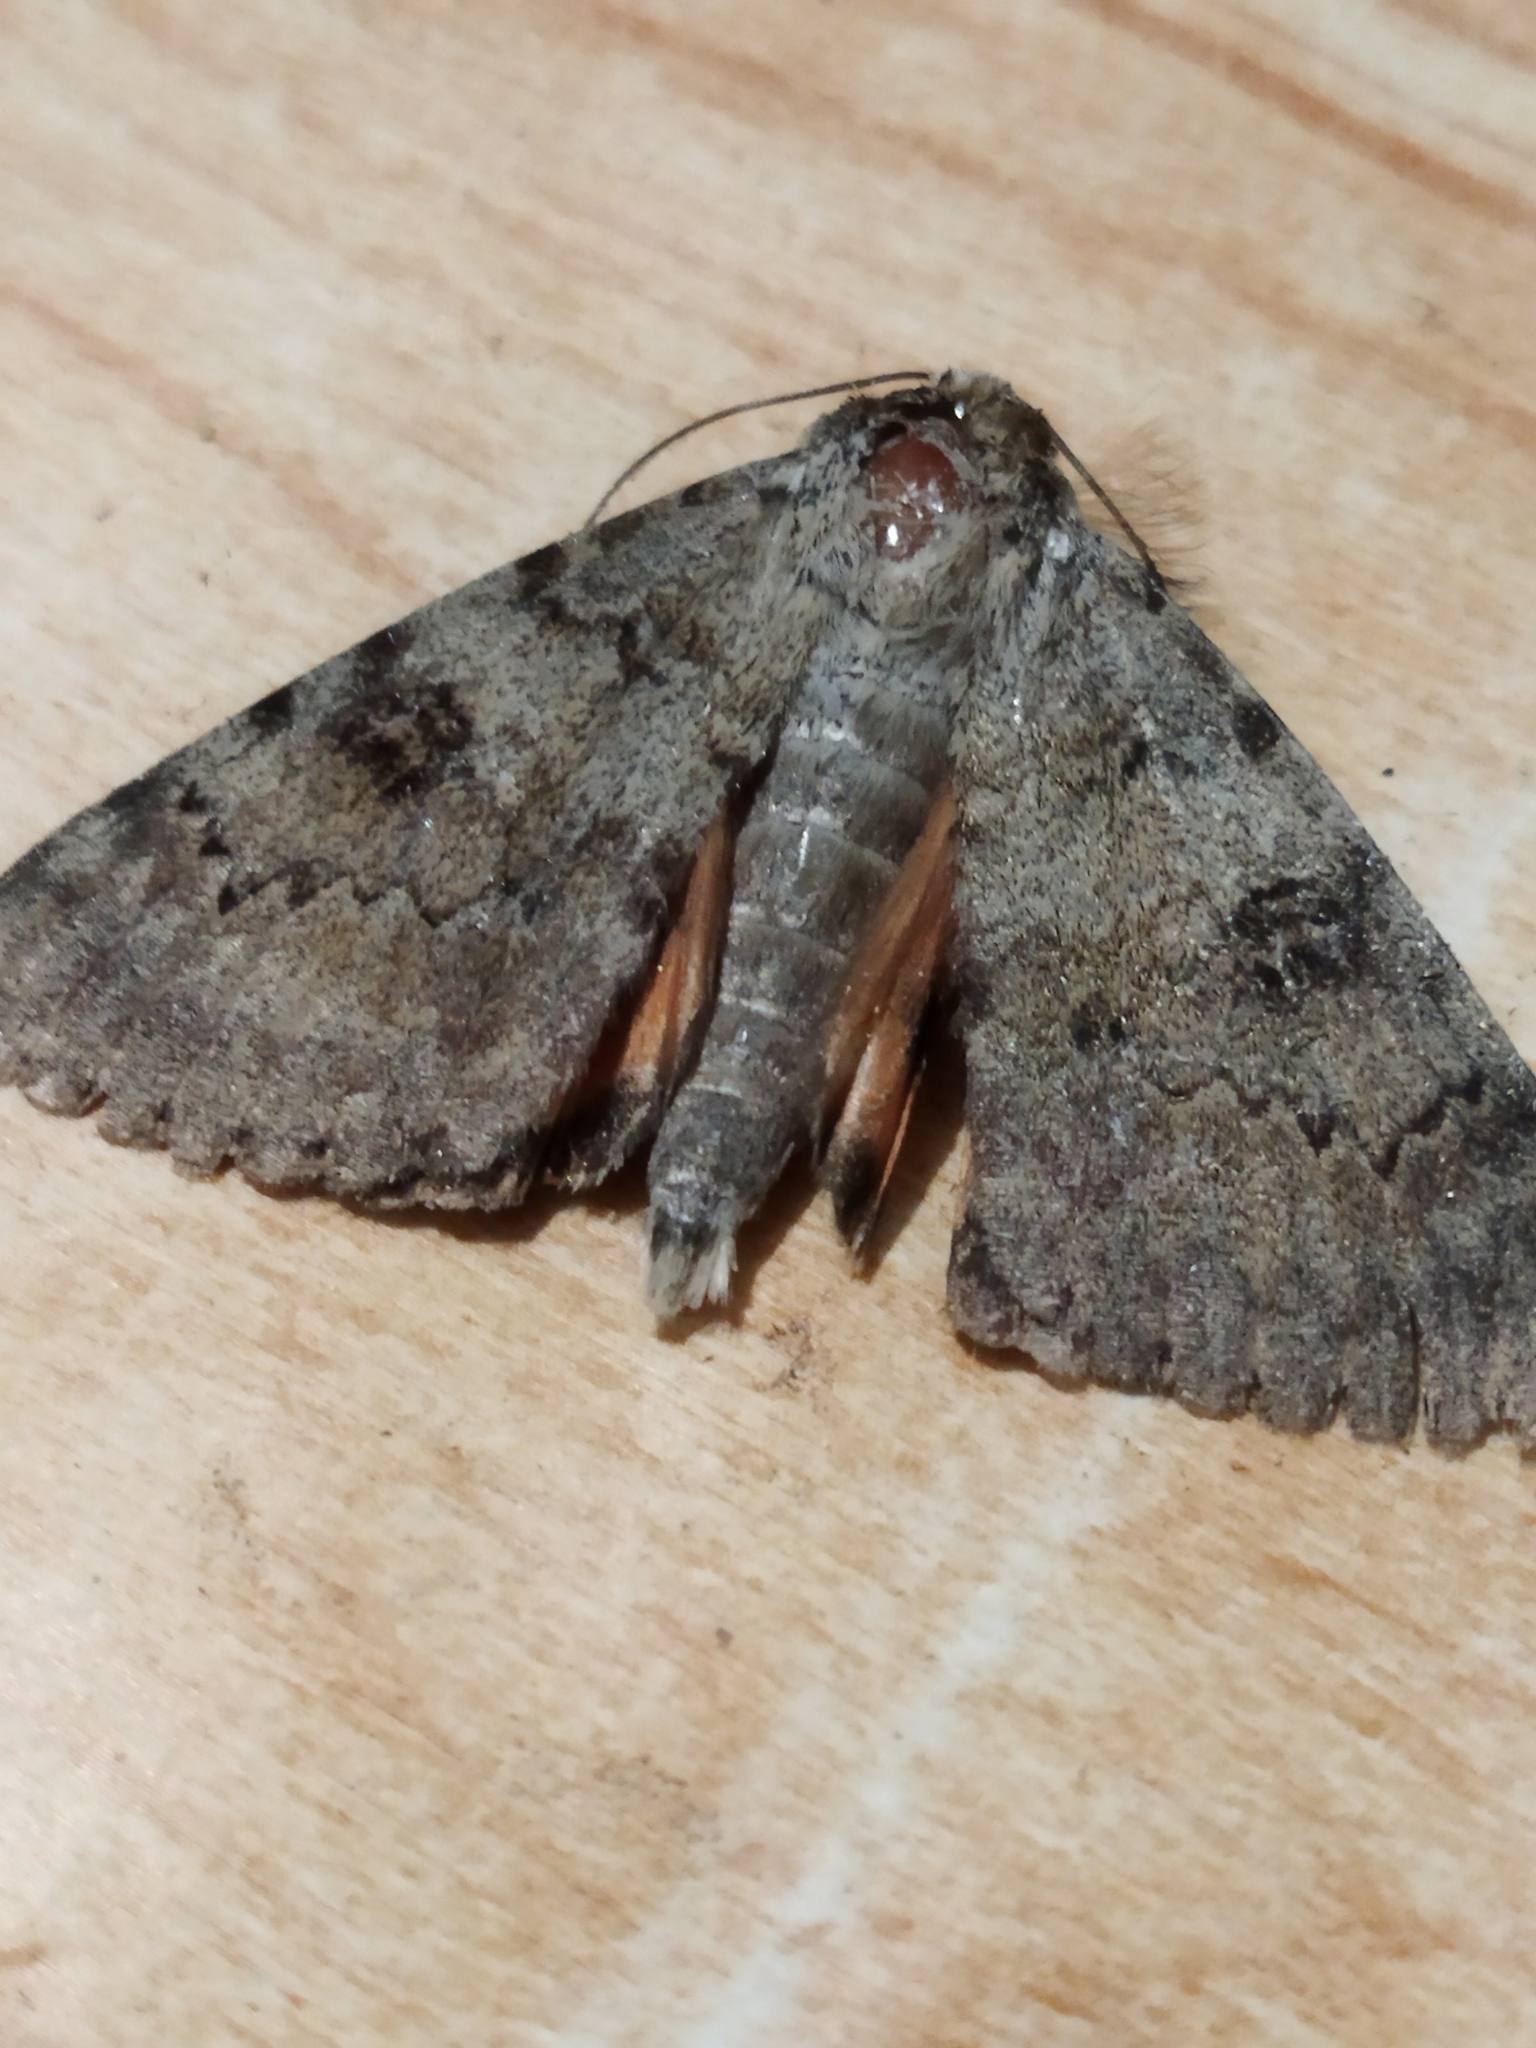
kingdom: Animalia
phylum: Arthropoda
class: Insecta
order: Lepidoptera
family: Erebidae
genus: Catocala
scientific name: Catocala puerpera
